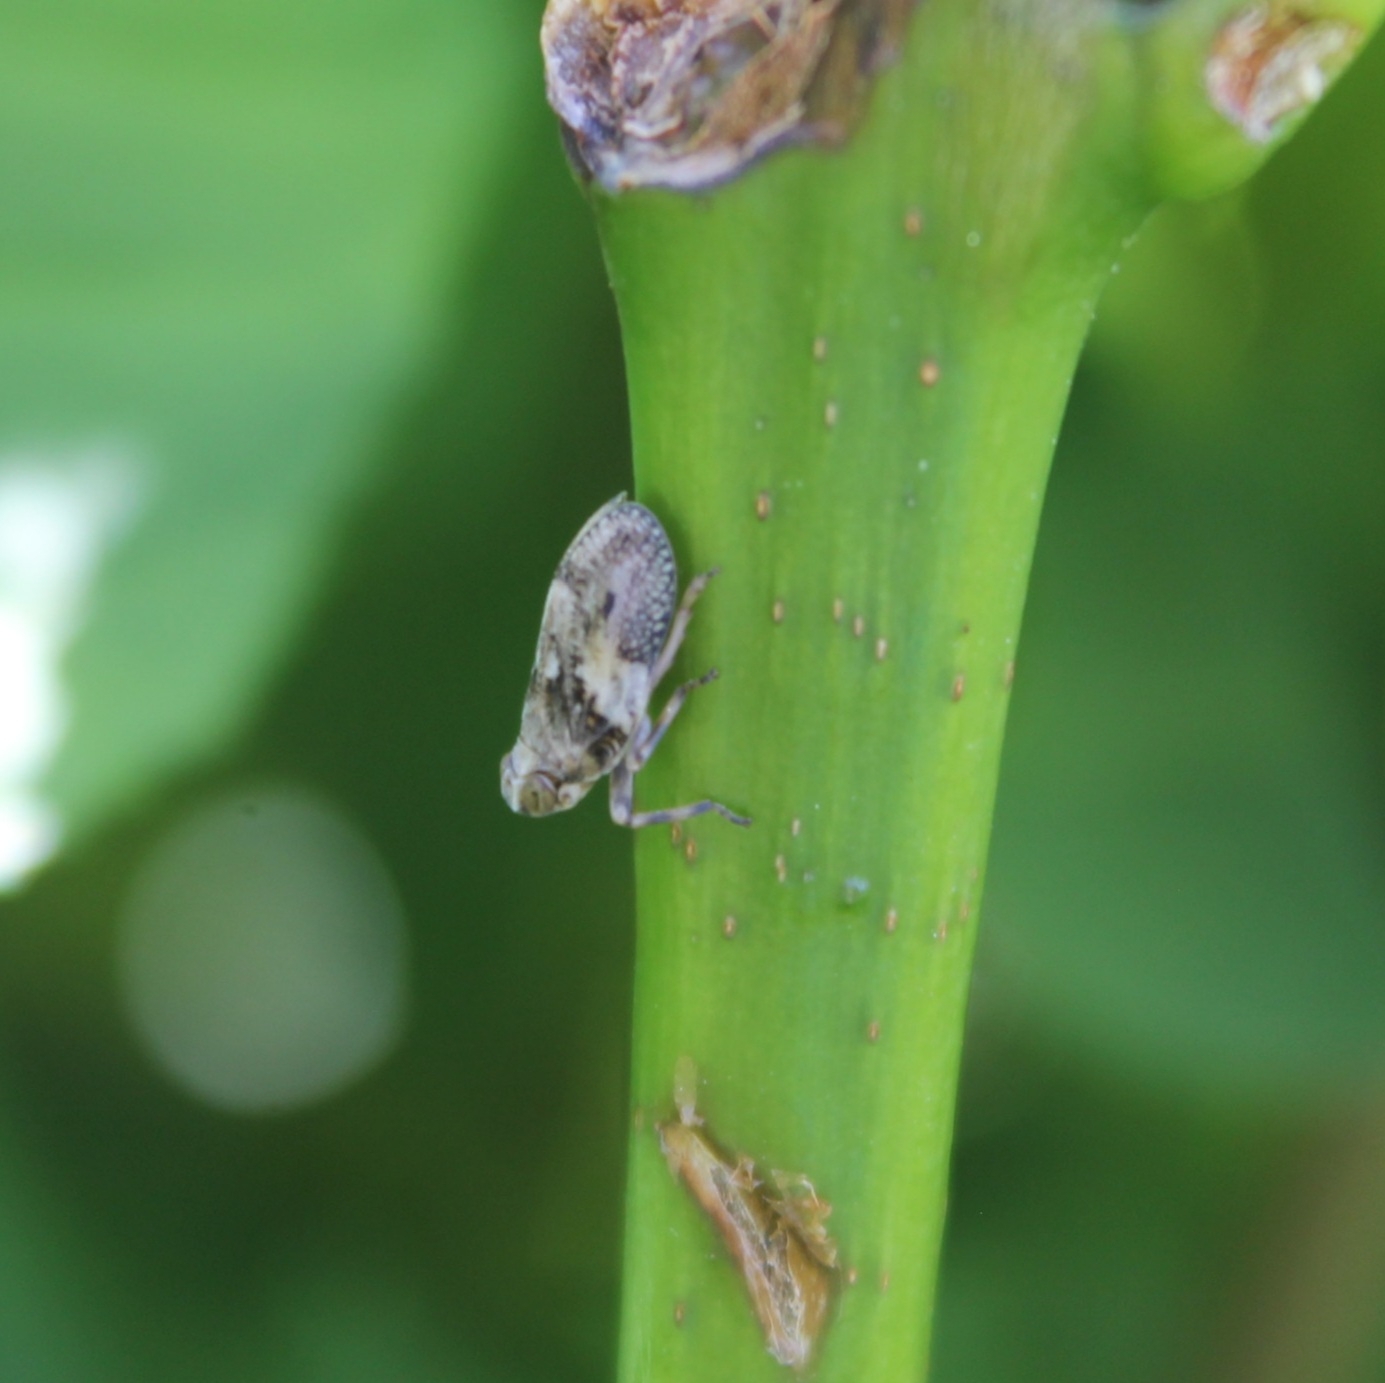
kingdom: Animalia
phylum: Arthropoda
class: Insecta
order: Hemiptera
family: Issidae
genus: Issus
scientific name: Issus coleoptratus
